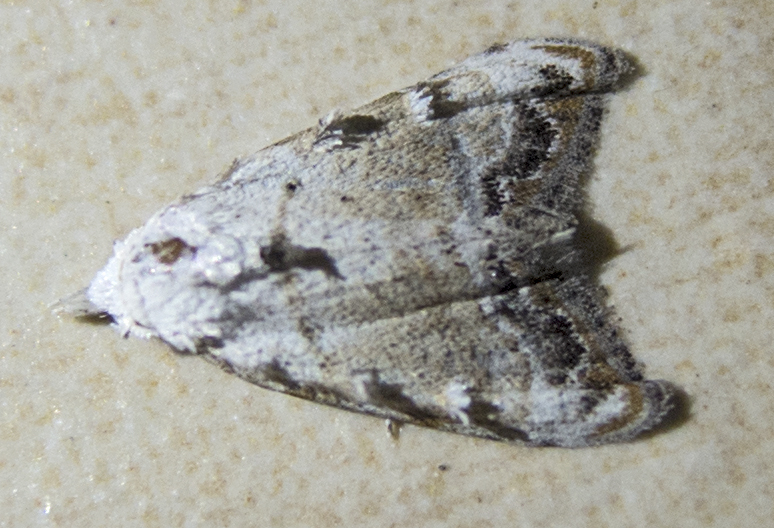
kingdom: Animalia
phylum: Arthropoda
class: Insecta
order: Lepidoptera
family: Nolidae
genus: Nola
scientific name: Nola chlamitulalis
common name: Jersey black arches
